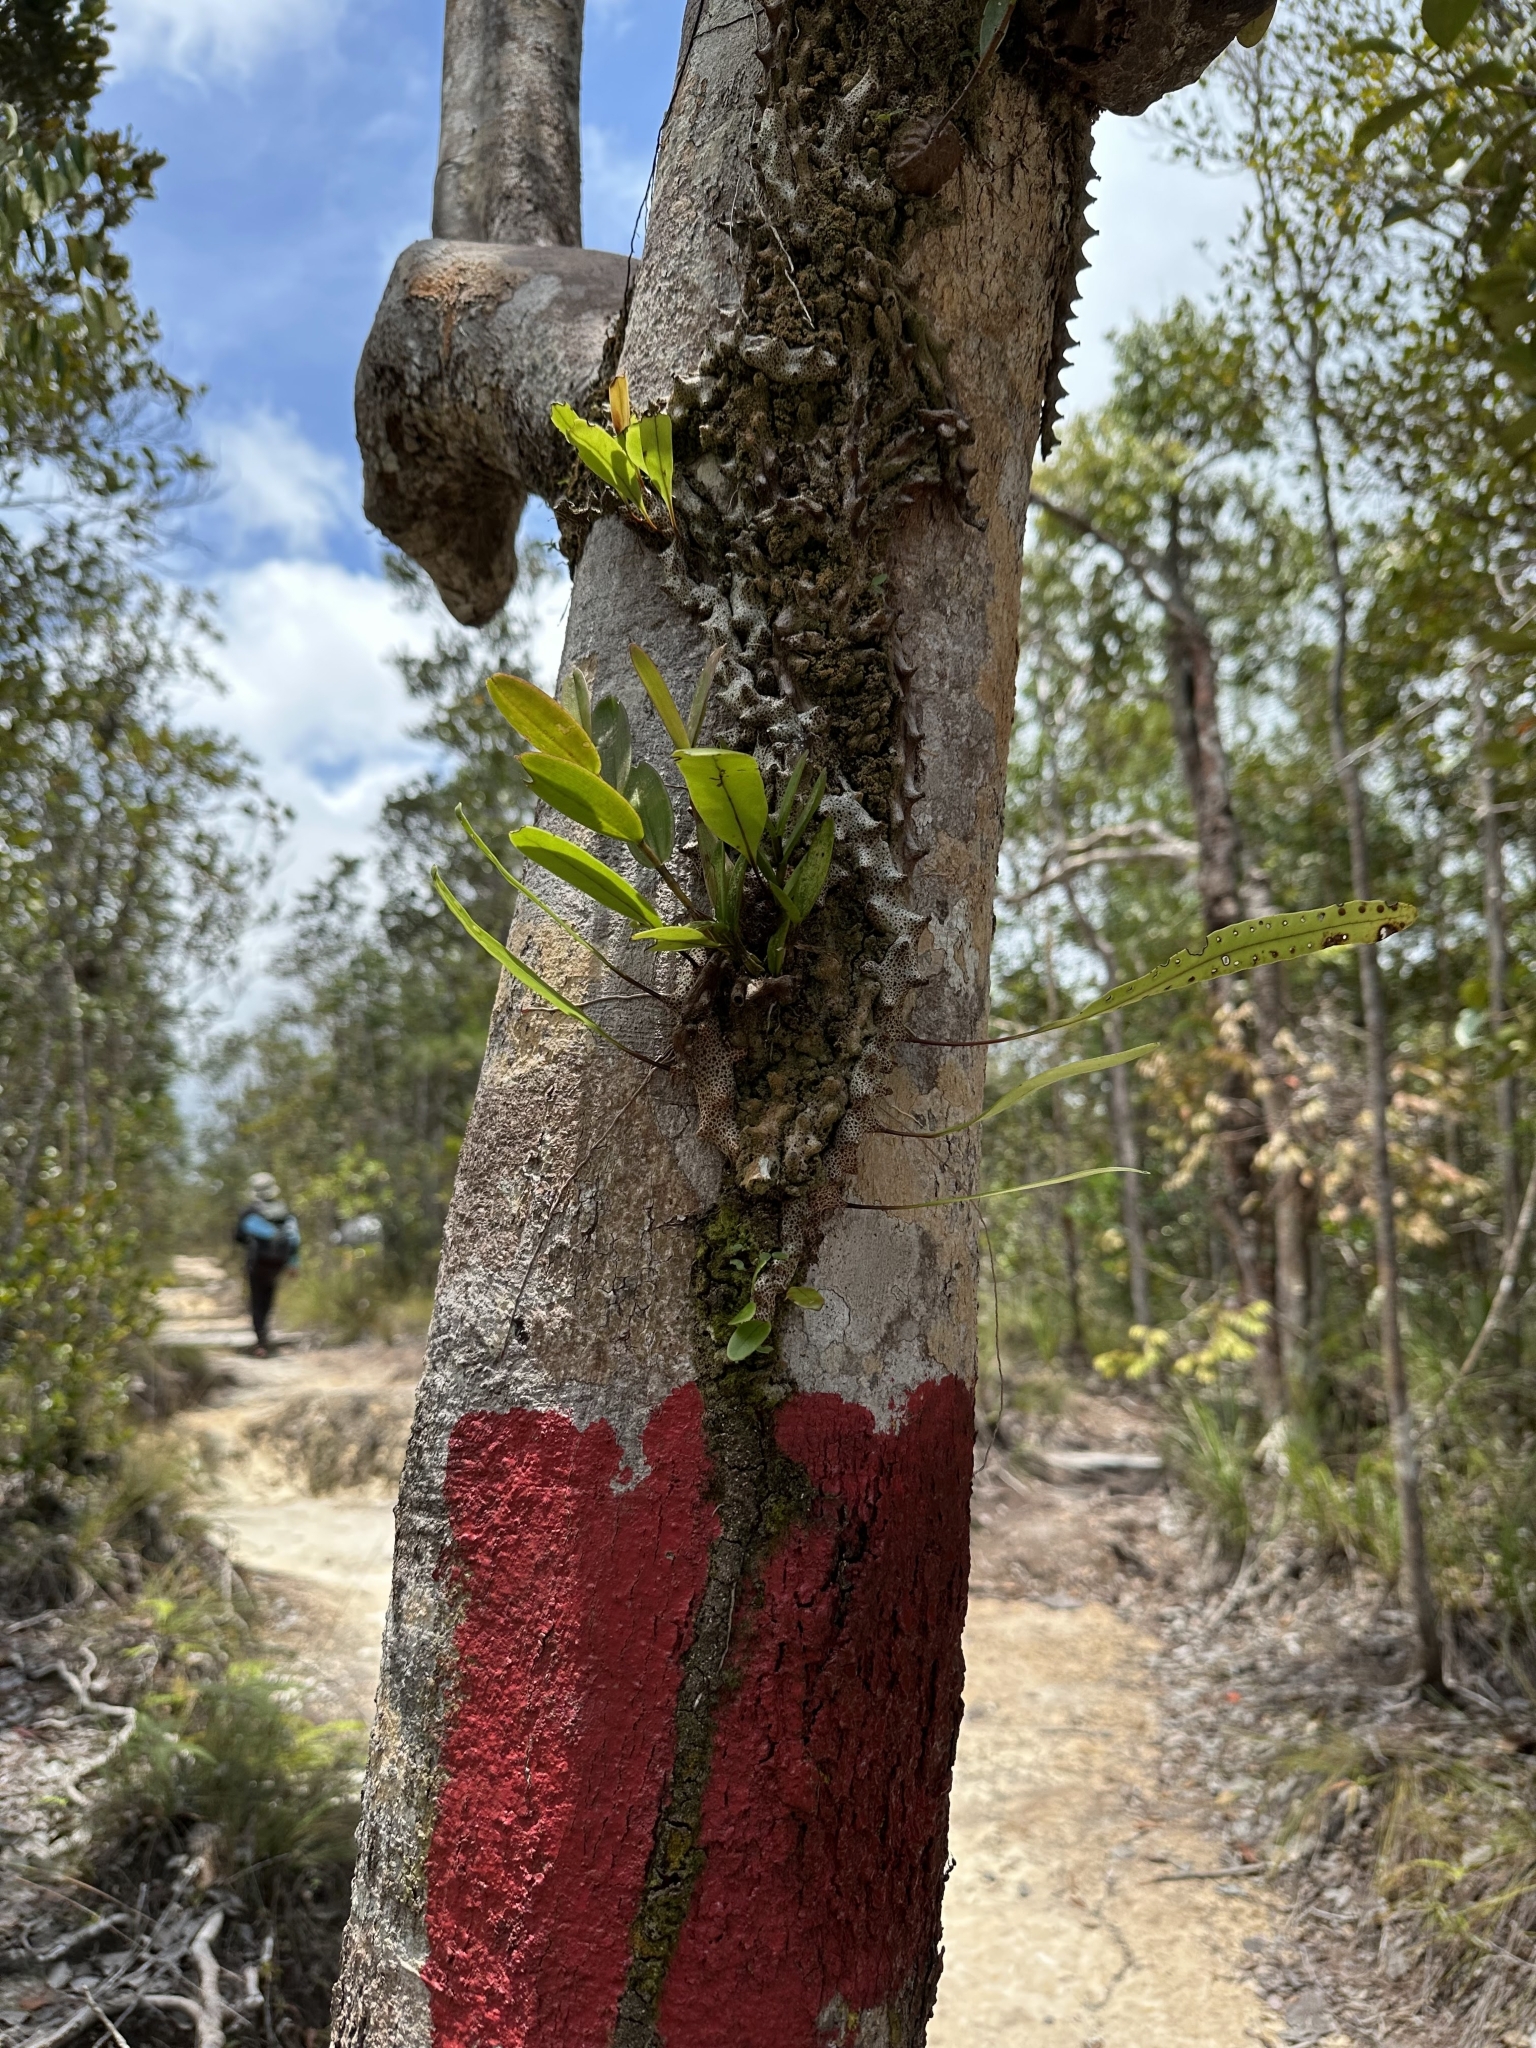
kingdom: Plantae
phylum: Tracheophyta
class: Polypodiopsida
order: Polypodiales
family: Polypodiaceae
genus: Lecanopteris
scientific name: Lecanopteris sinuosa
